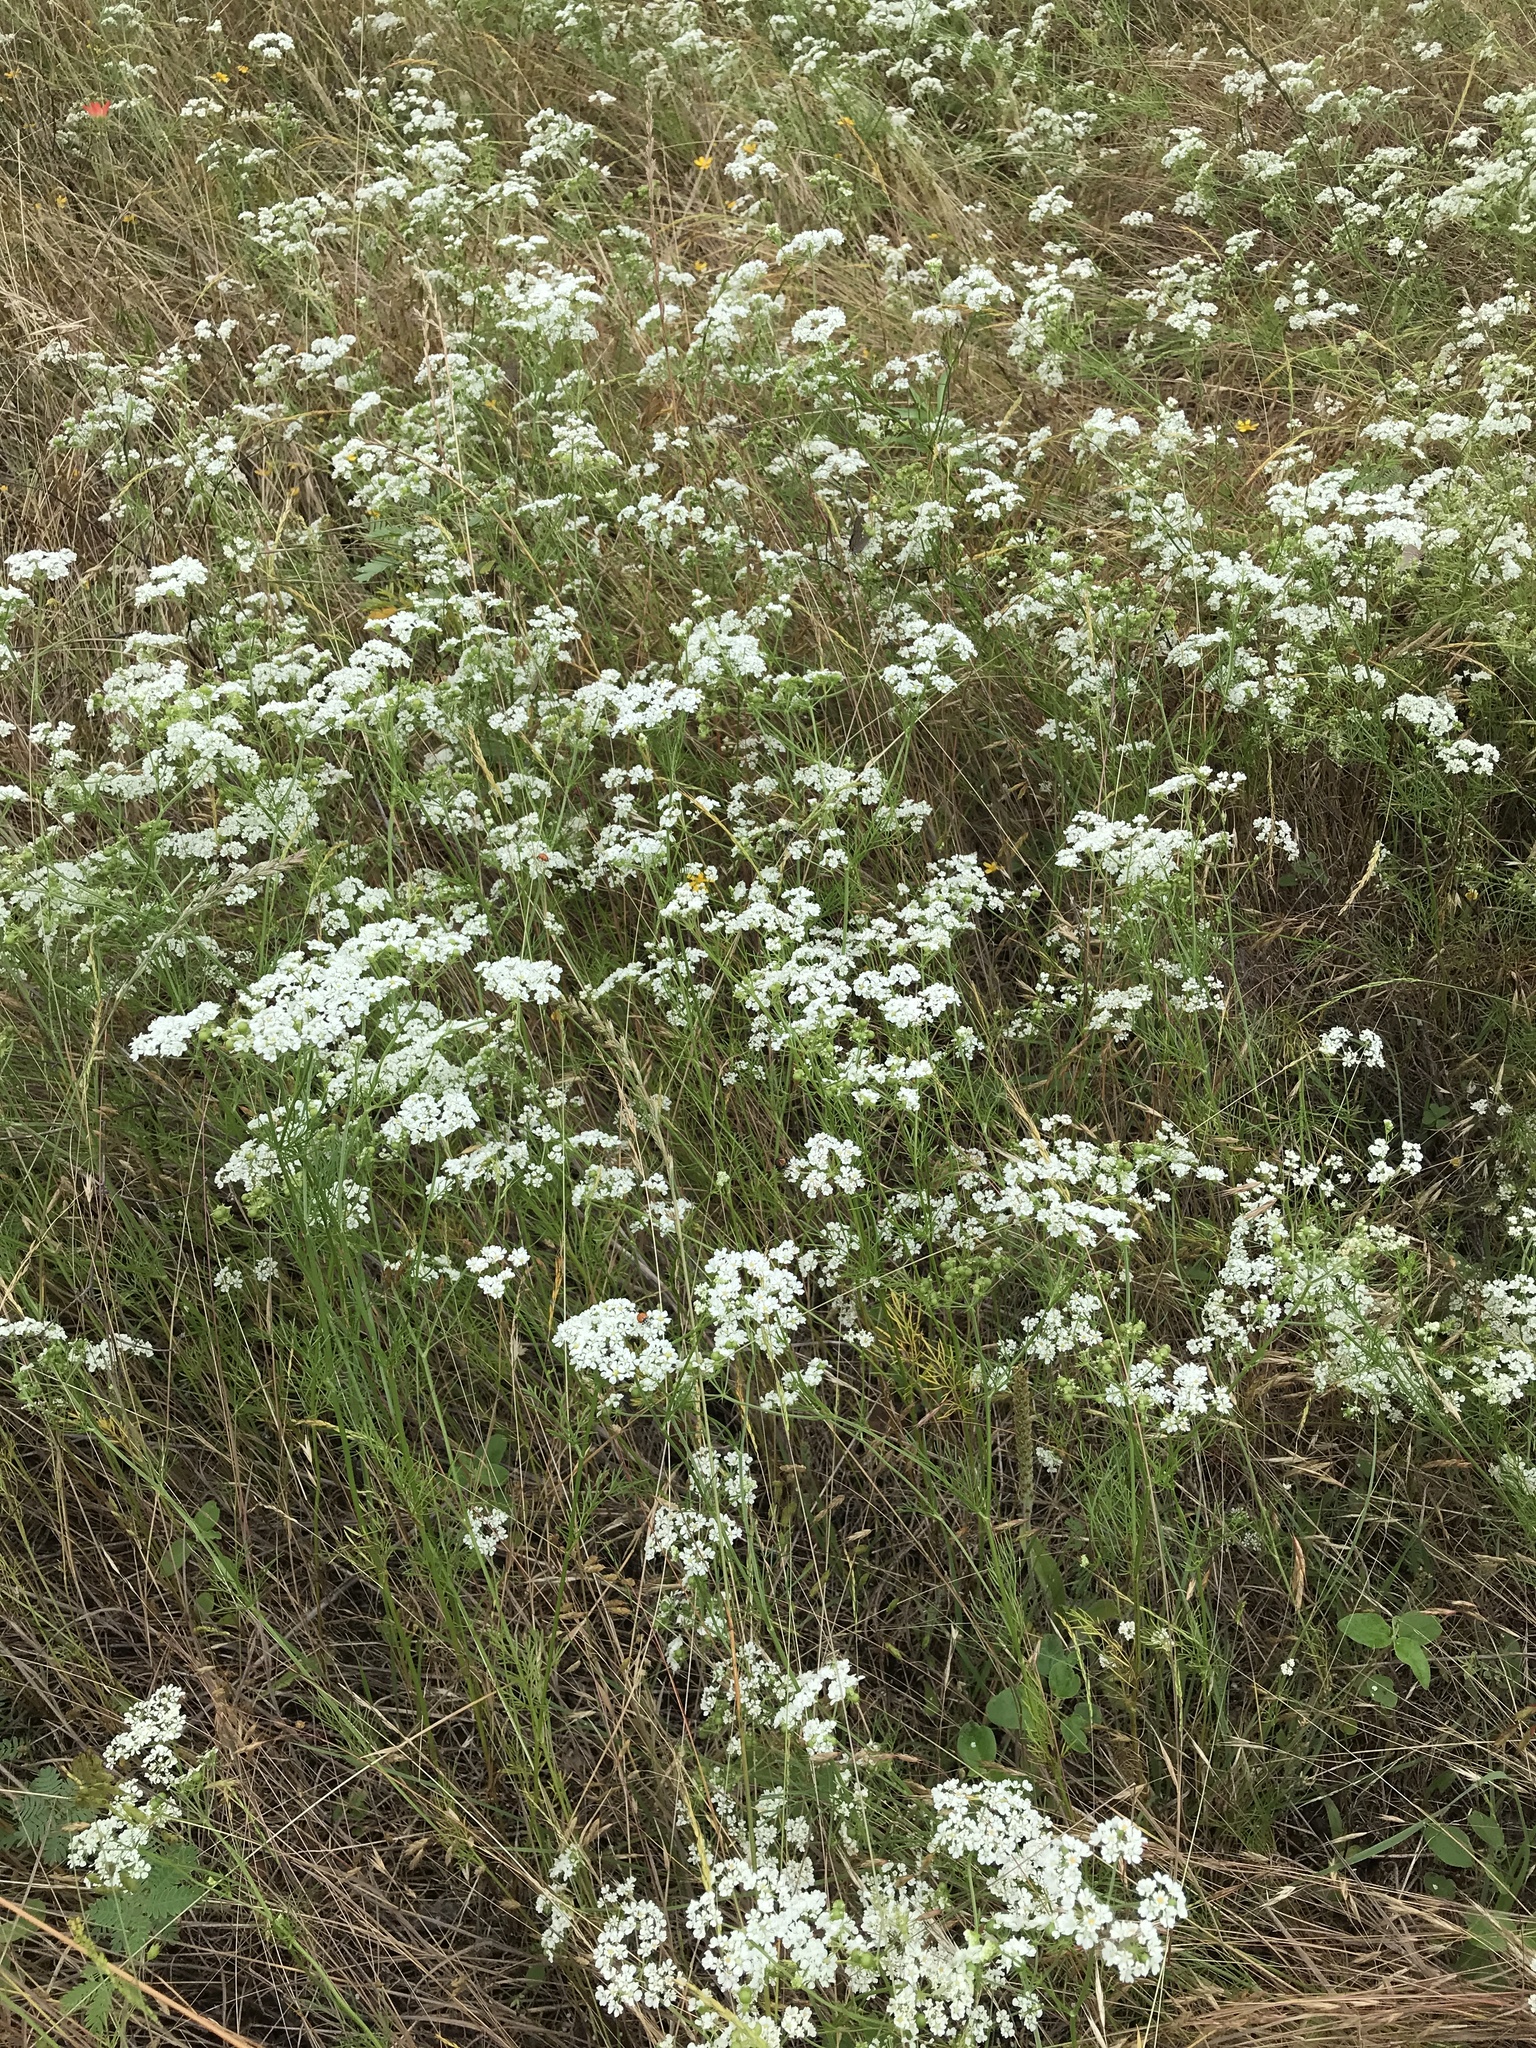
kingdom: Plantae
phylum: Tracheophyta
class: Magnoliopsida
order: Apiales
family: Apiaceae
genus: Atrema
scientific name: Atrema americanum
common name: Prairie-bishop
